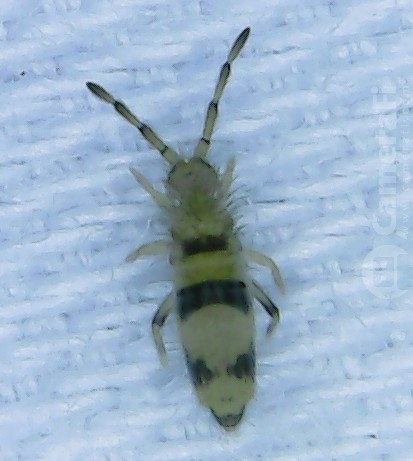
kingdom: Animalia
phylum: Arthropoda
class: Collembola
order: Entomobryomorpha
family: Entomobryidae
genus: Entomobrya
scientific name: Entomobrya triangularis
